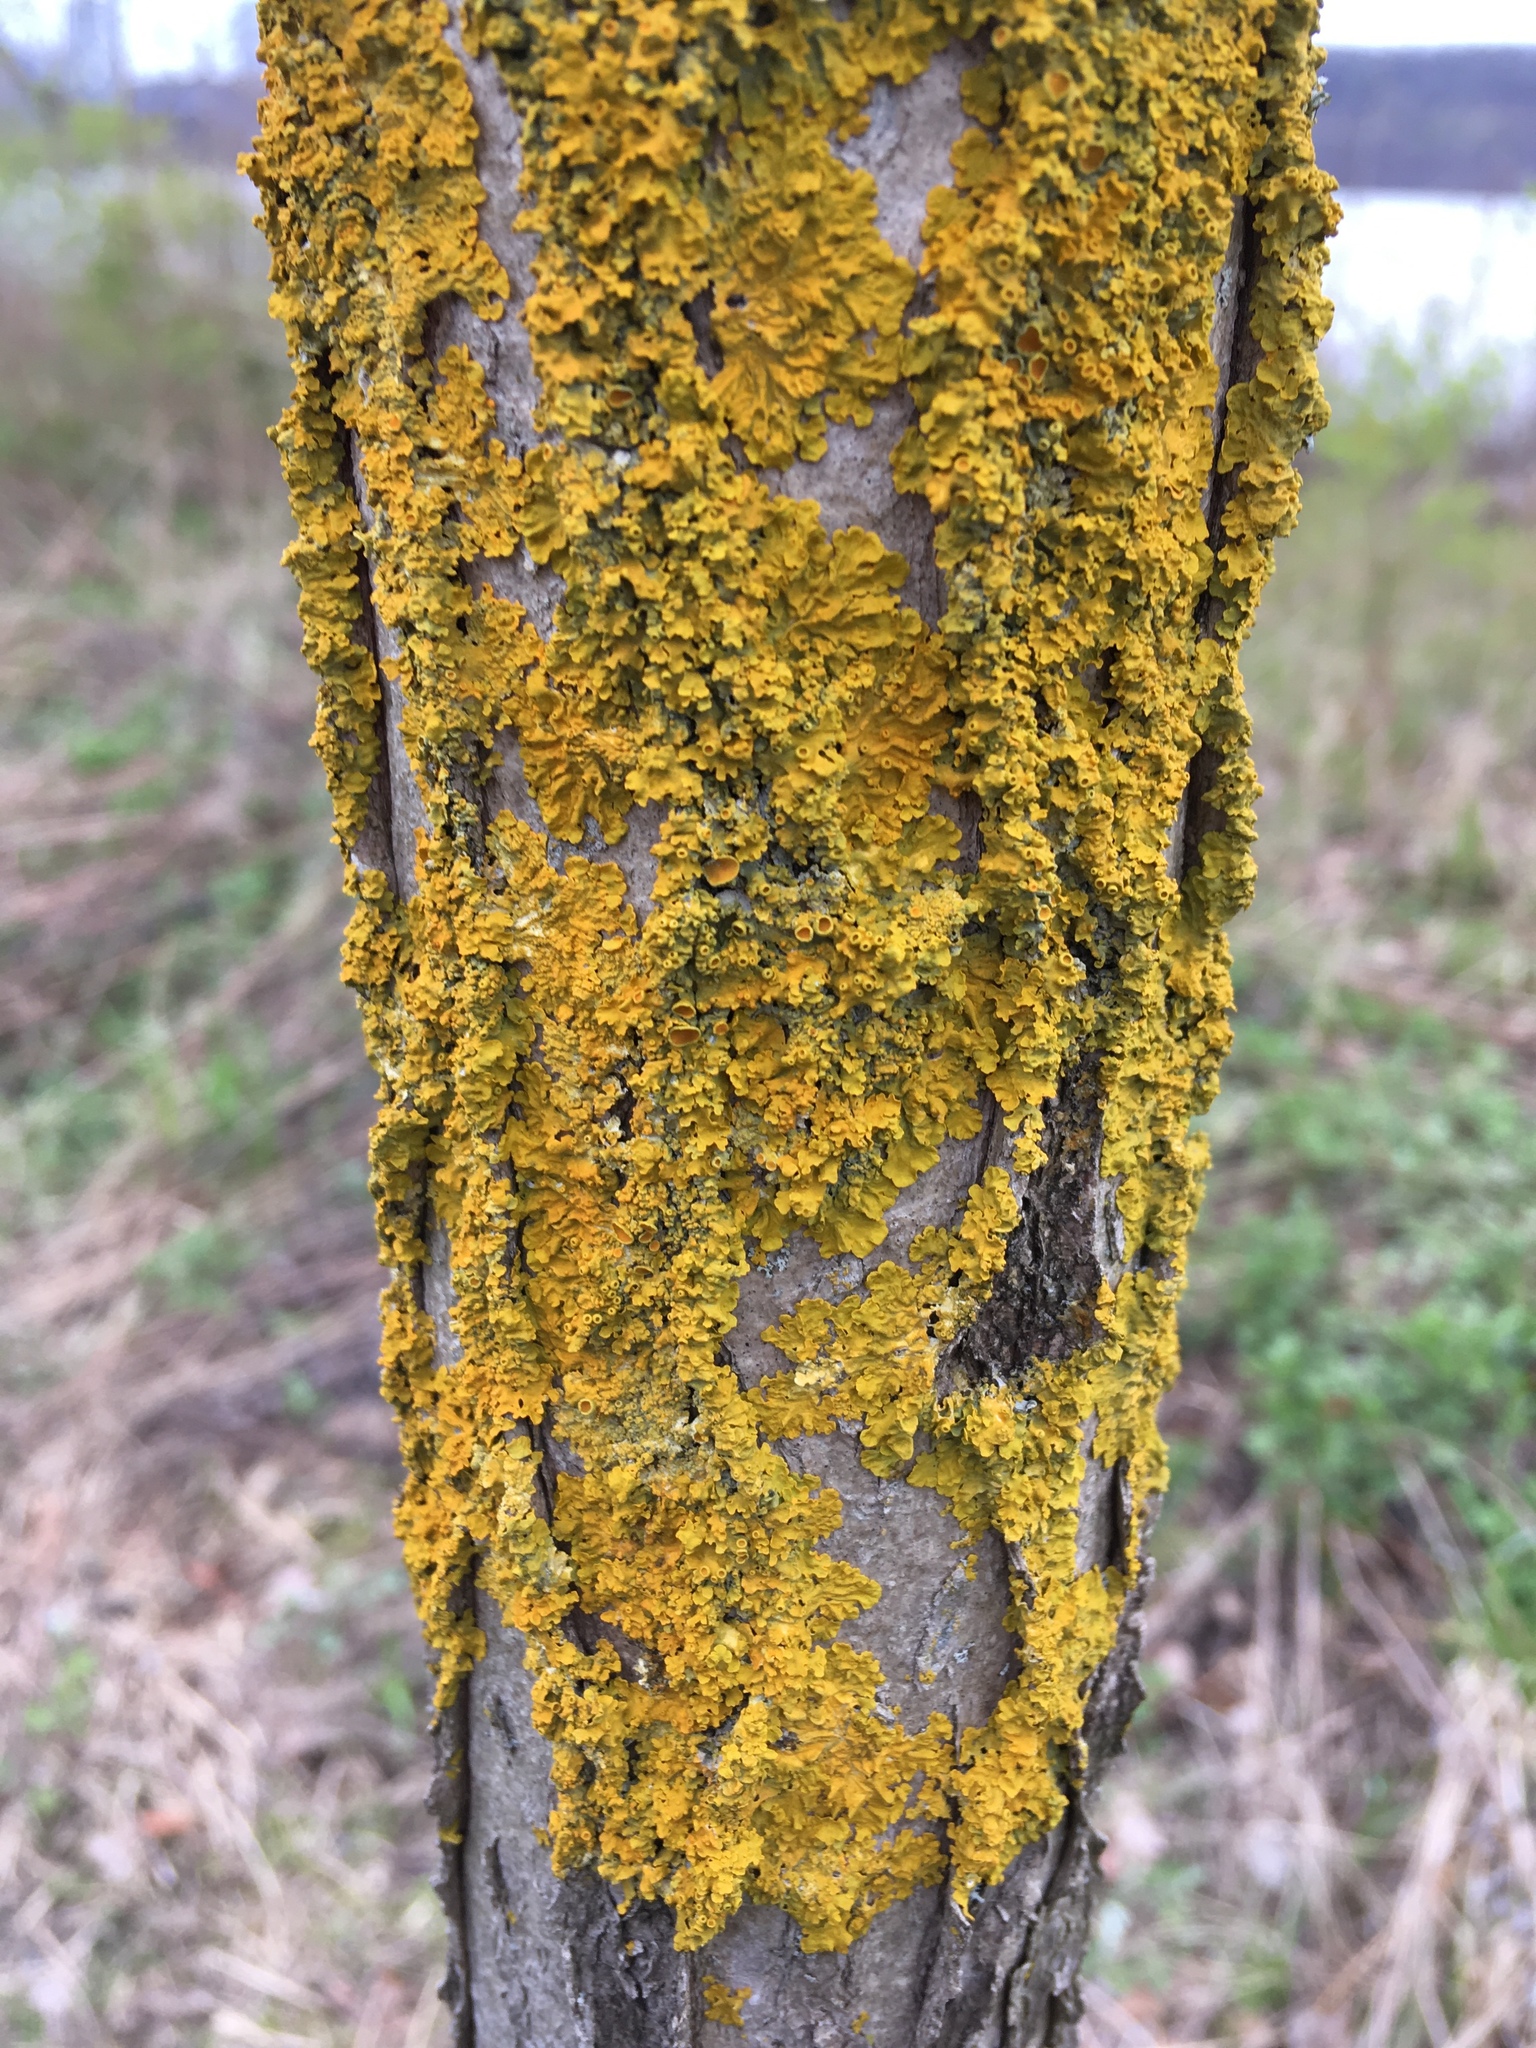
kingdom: Fungi
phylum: Ascomycota
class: Lecanoromycetes
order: Teloschistales
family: Teloschistaceae
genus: Xanthoria
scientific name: Xanthoria parietina
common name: Common orange lichen
